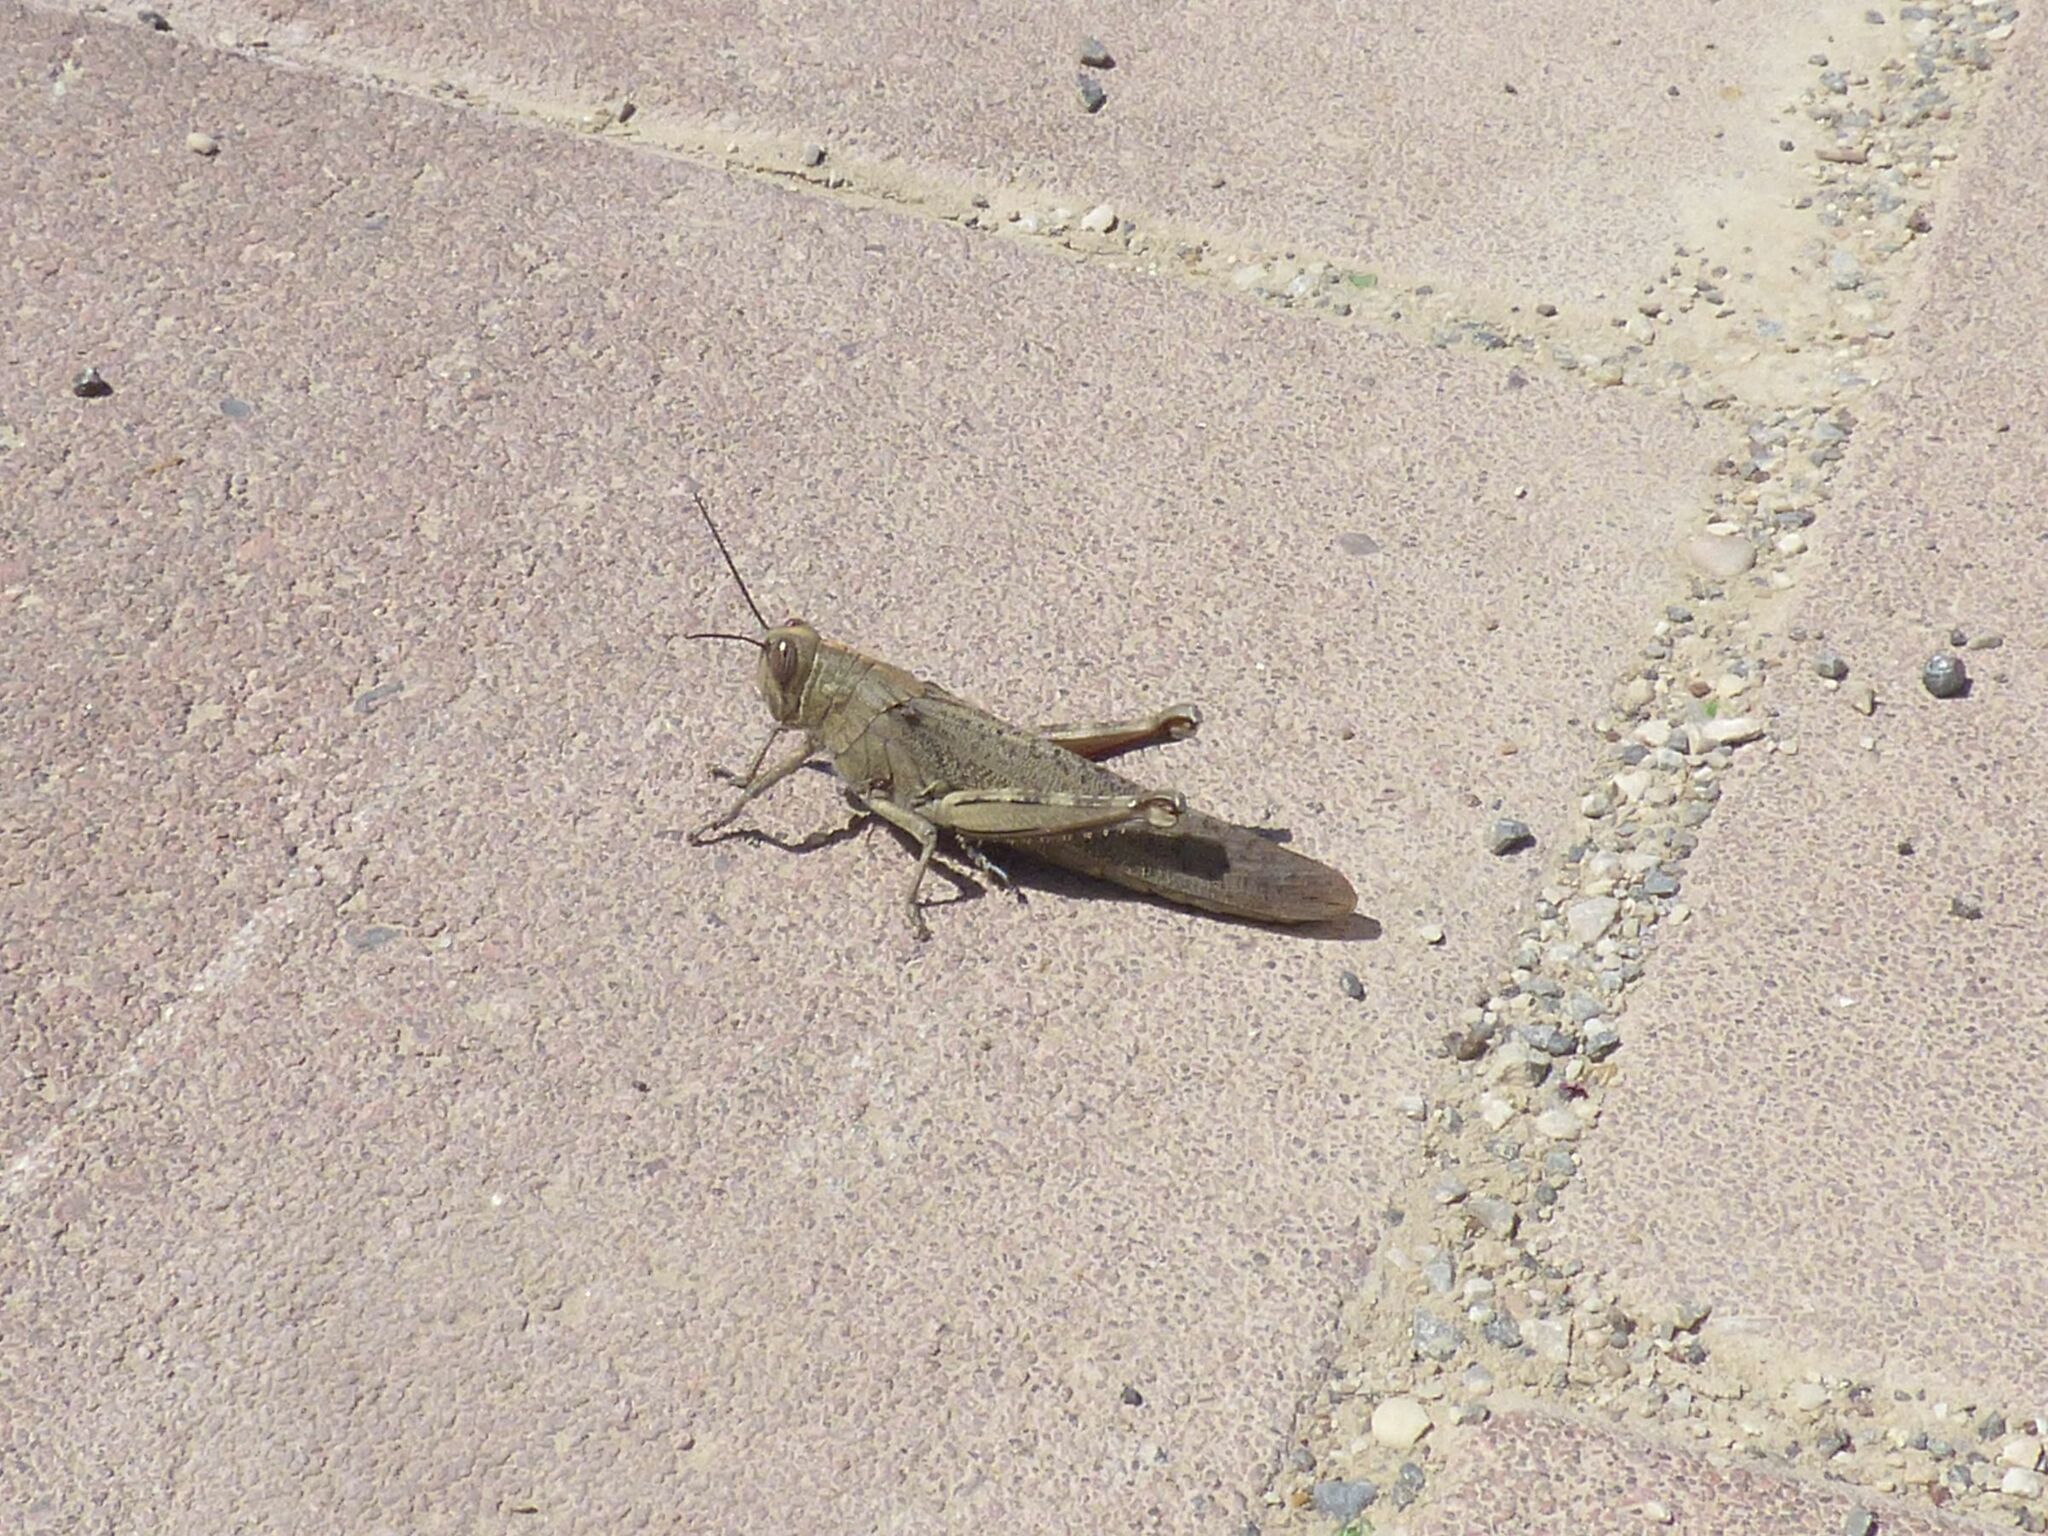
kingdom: Animalia
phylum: Arthropoda
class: Insecta
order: Orthoptera
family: Acrididae
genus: Anacridium
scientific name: Anacridium aegyptium
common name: Egyptian grasshopper
